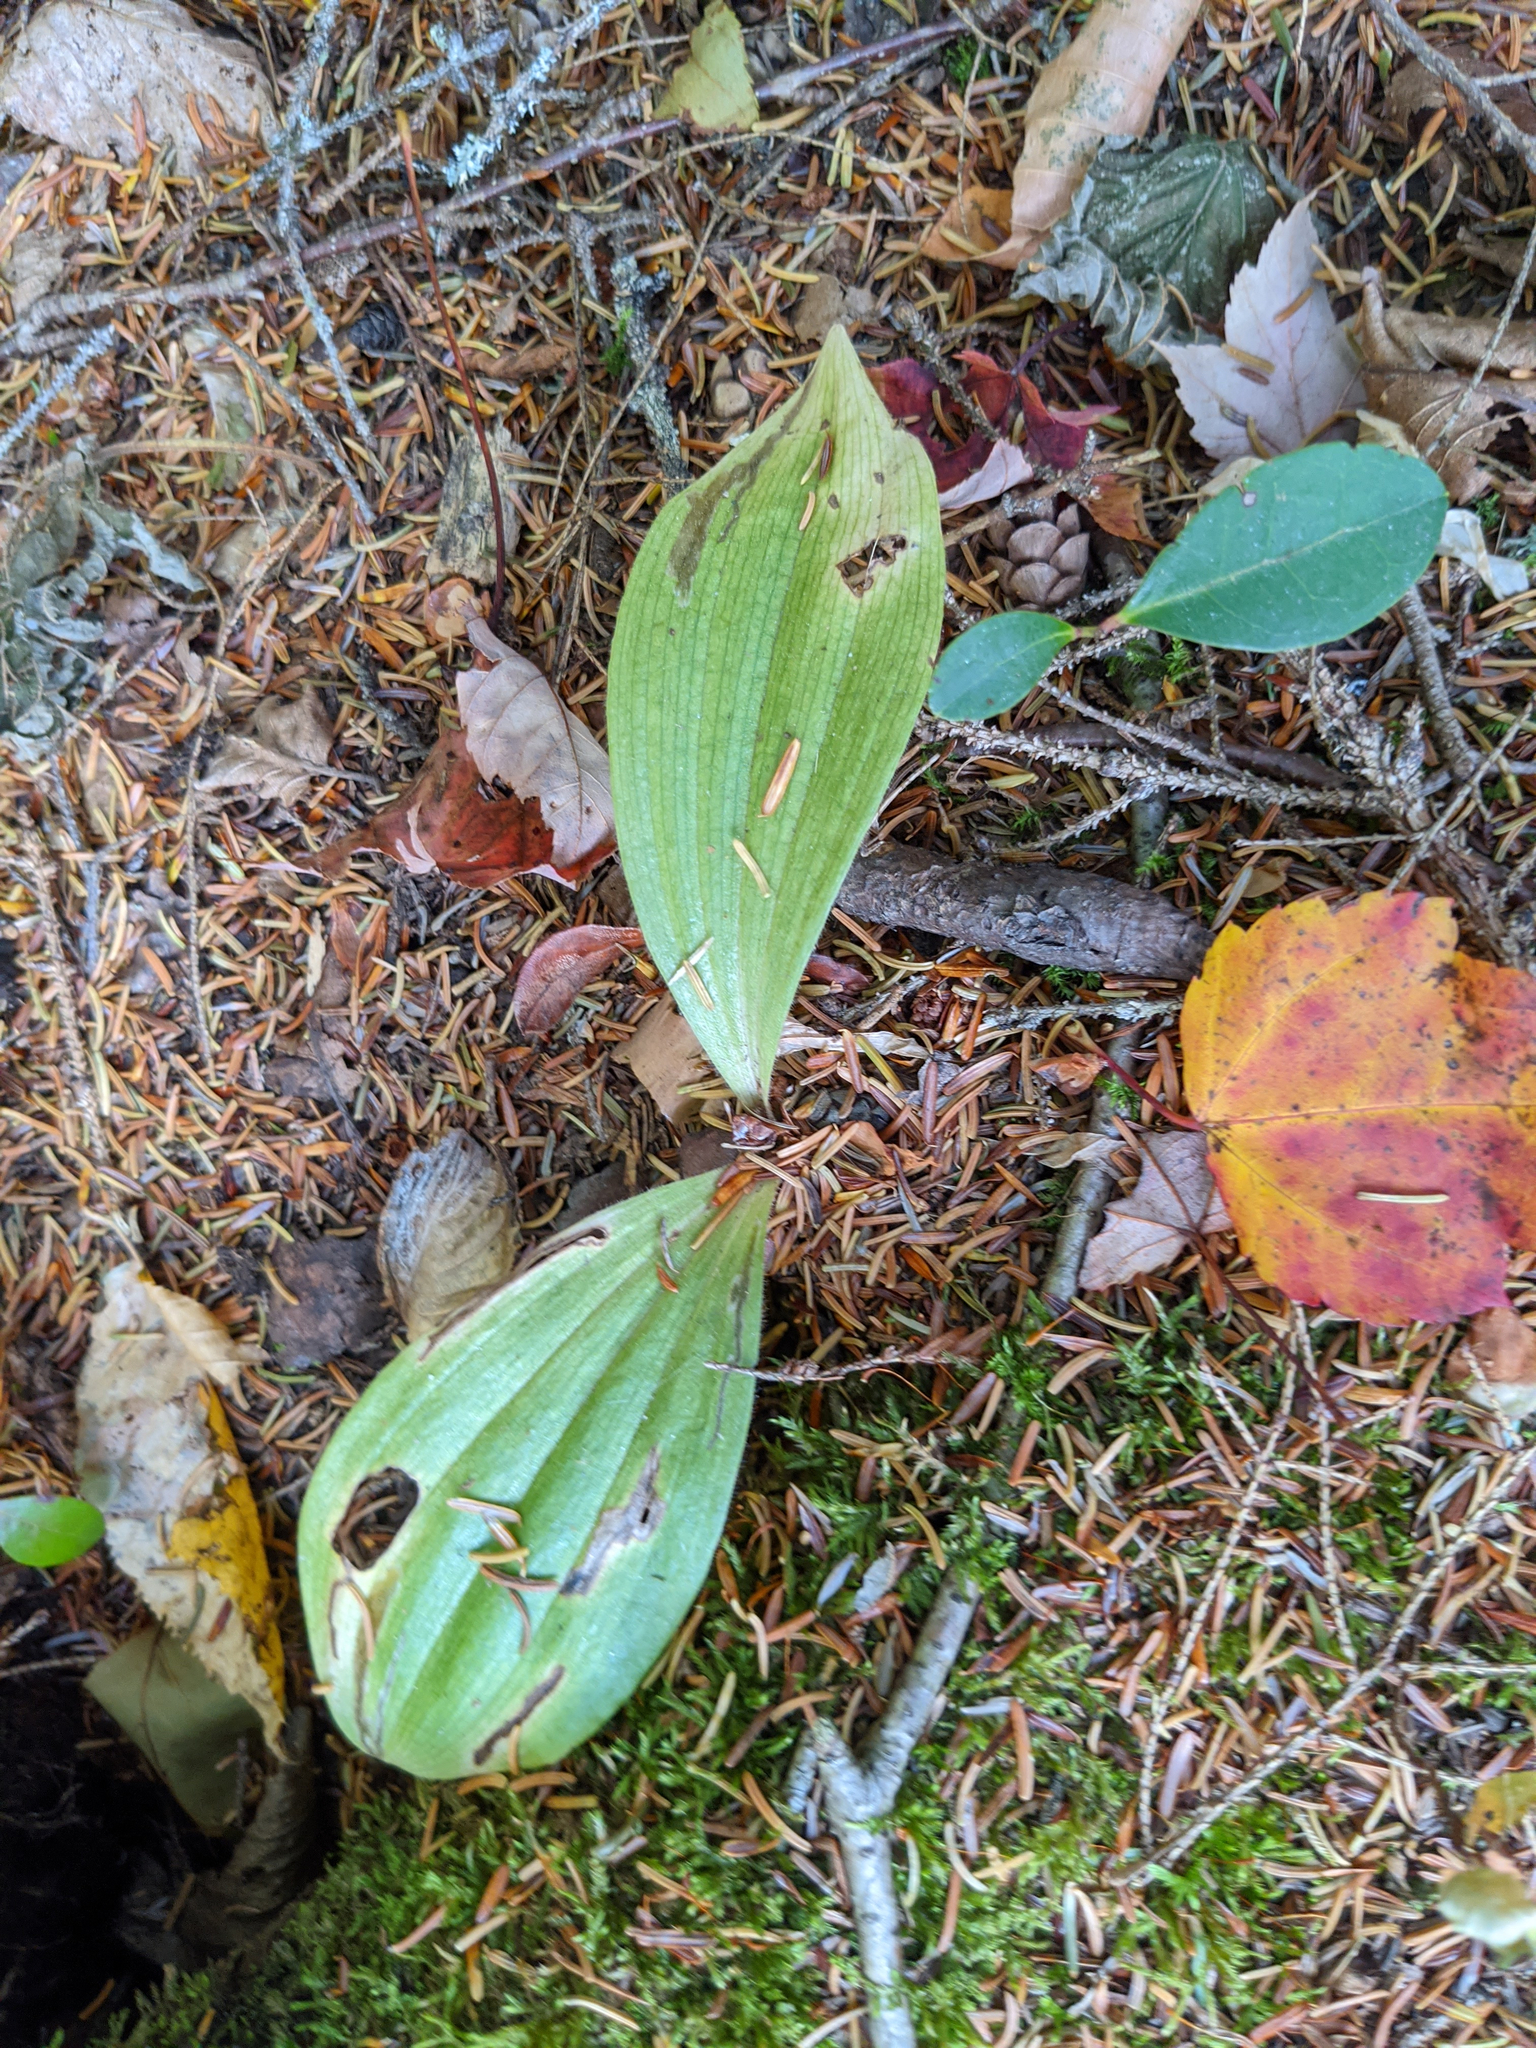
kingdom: Plantae
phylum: Tracheophyta
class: Liliopsida
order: Asparagales
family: Orchidaceae
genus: Cypripedium
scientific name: Cypripedium acaule
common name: Pink lady's-slipper
